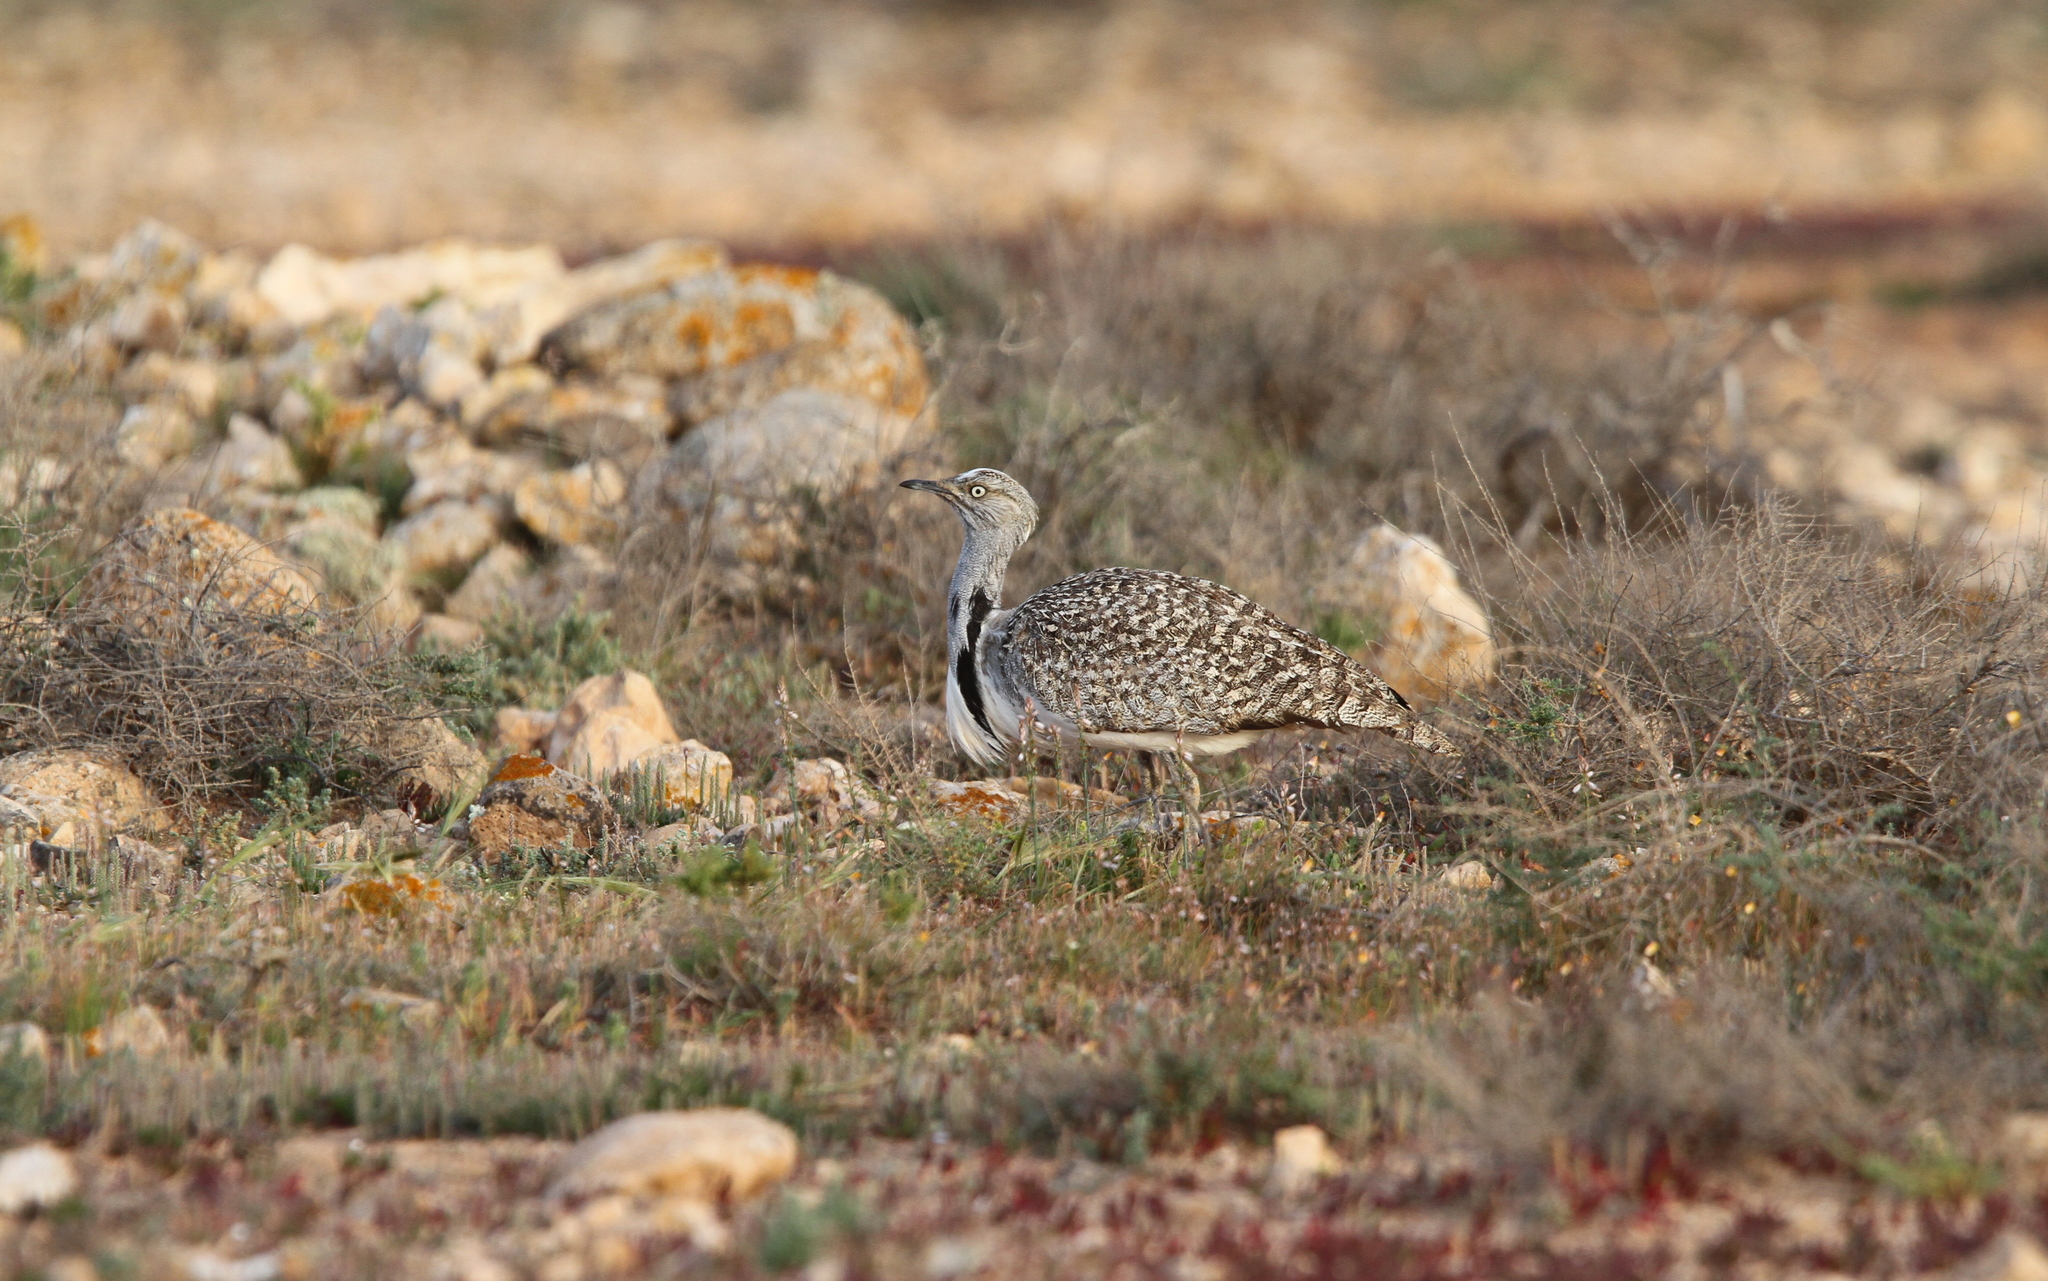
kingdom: Animalia
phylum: Chordata
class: Aves
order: Otidiformes
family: Otididae
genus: Chlamydotis
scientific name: Chlamydotis undulata
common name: Houbara bustard
